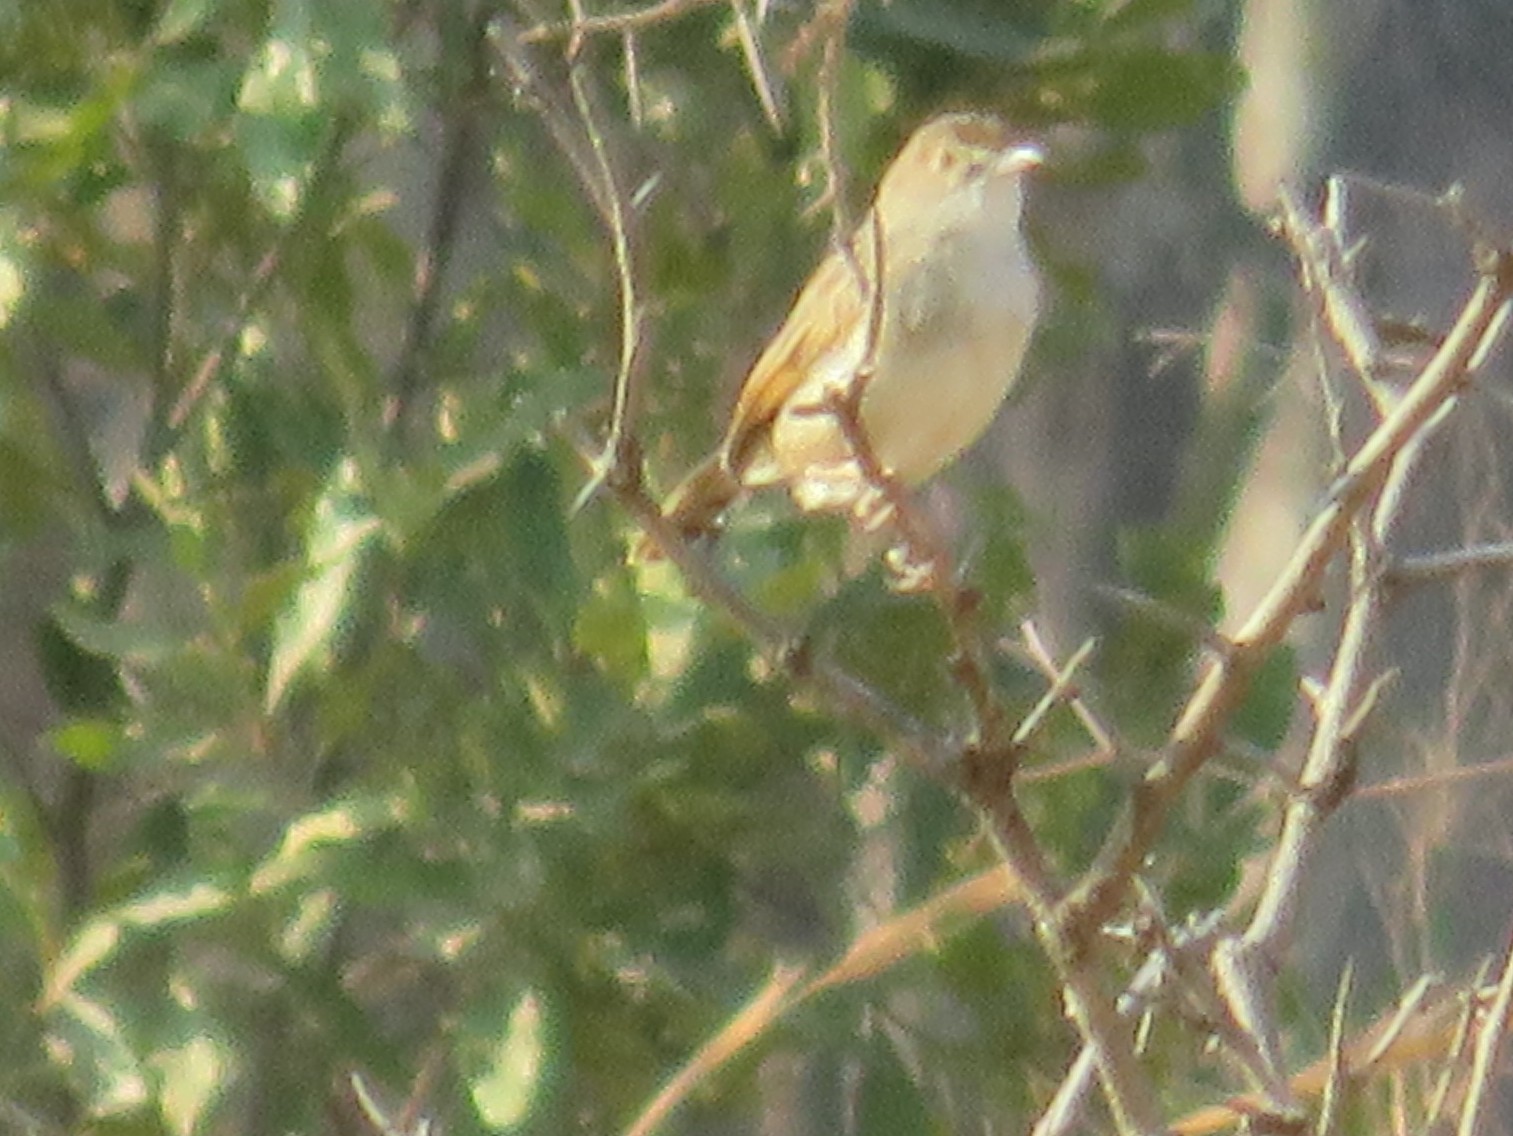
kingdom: Animalia
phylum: Chordata
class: Aves
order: Passeriformes
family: Cisticolidae
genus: Cisticola
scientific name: Cisticola chiniana
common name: Rattling cisticola
